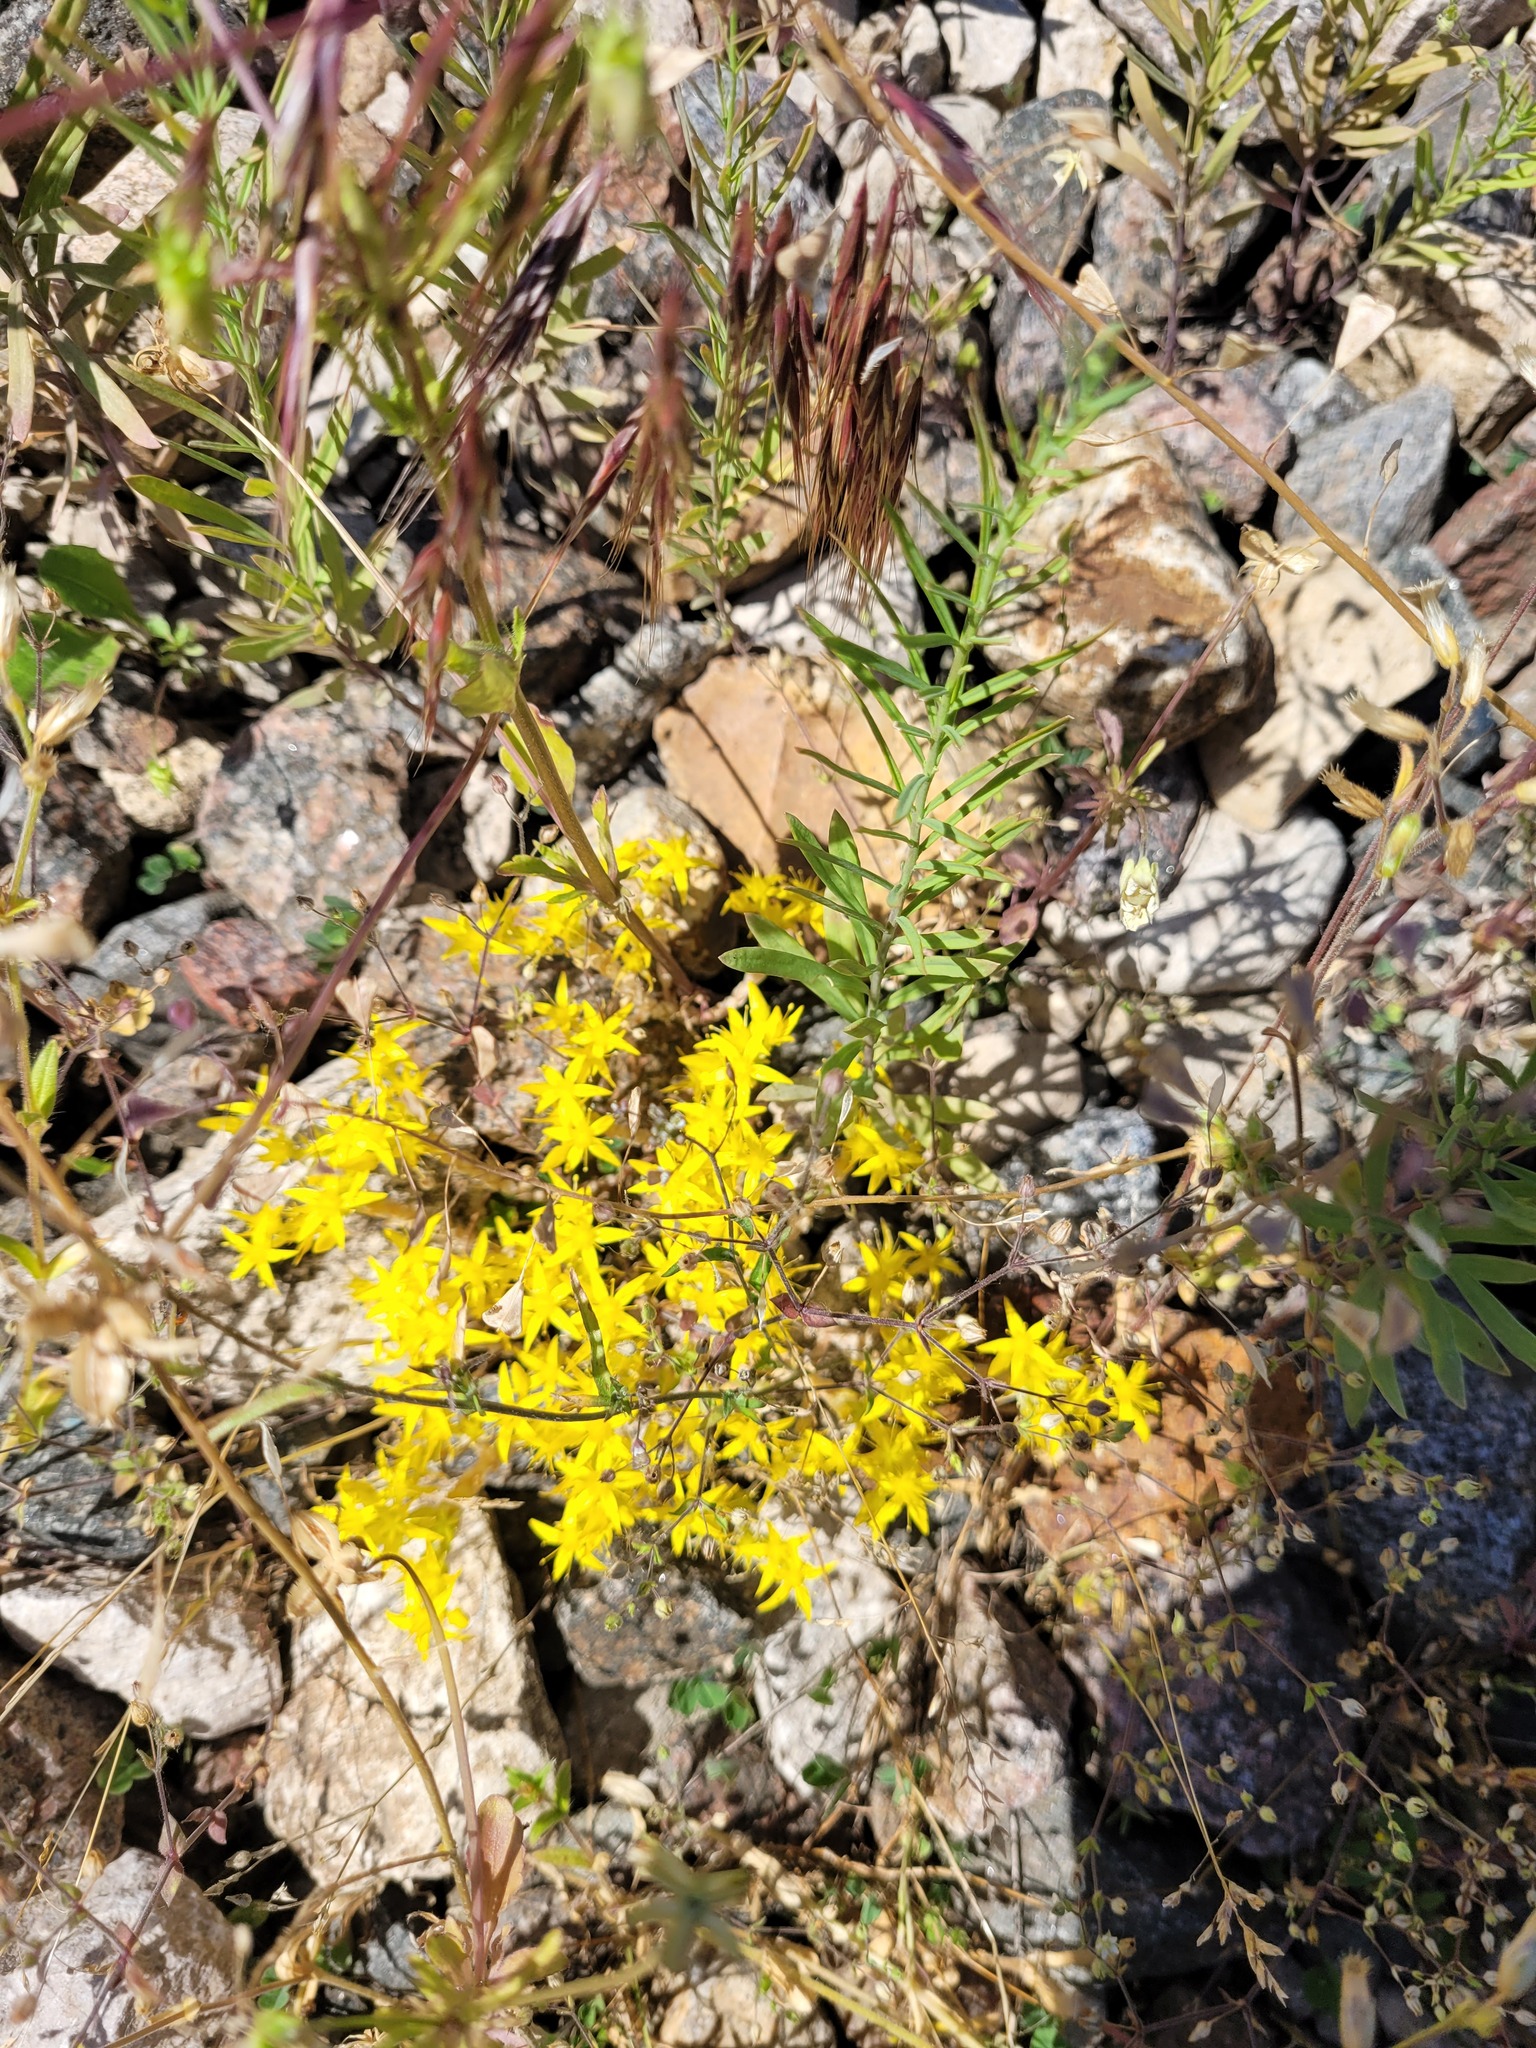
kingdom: Plantae
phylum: Tracheophyta
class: Magnoliopsida
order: Saxifragales
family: Crassulaceae
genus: Sedum
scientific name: Sedum acre
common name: Biting stonecrop
